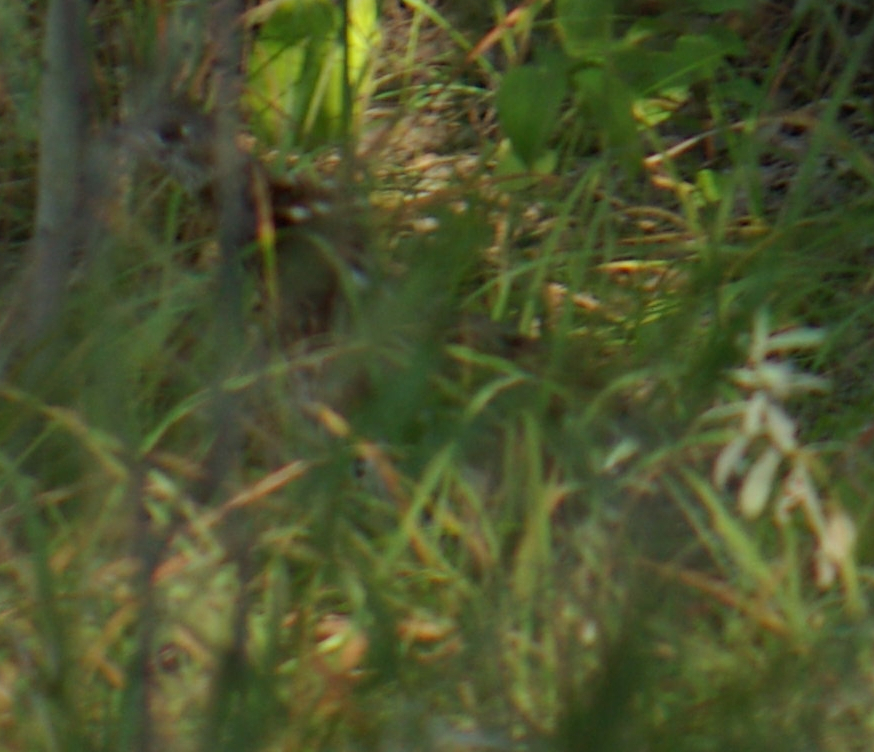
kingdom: Animalia
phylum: Chordata
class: Aves
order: Galliformes
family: Phasianidae
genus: Bonasa
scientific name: Bonasa umbellus
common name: Ruffed grouse
